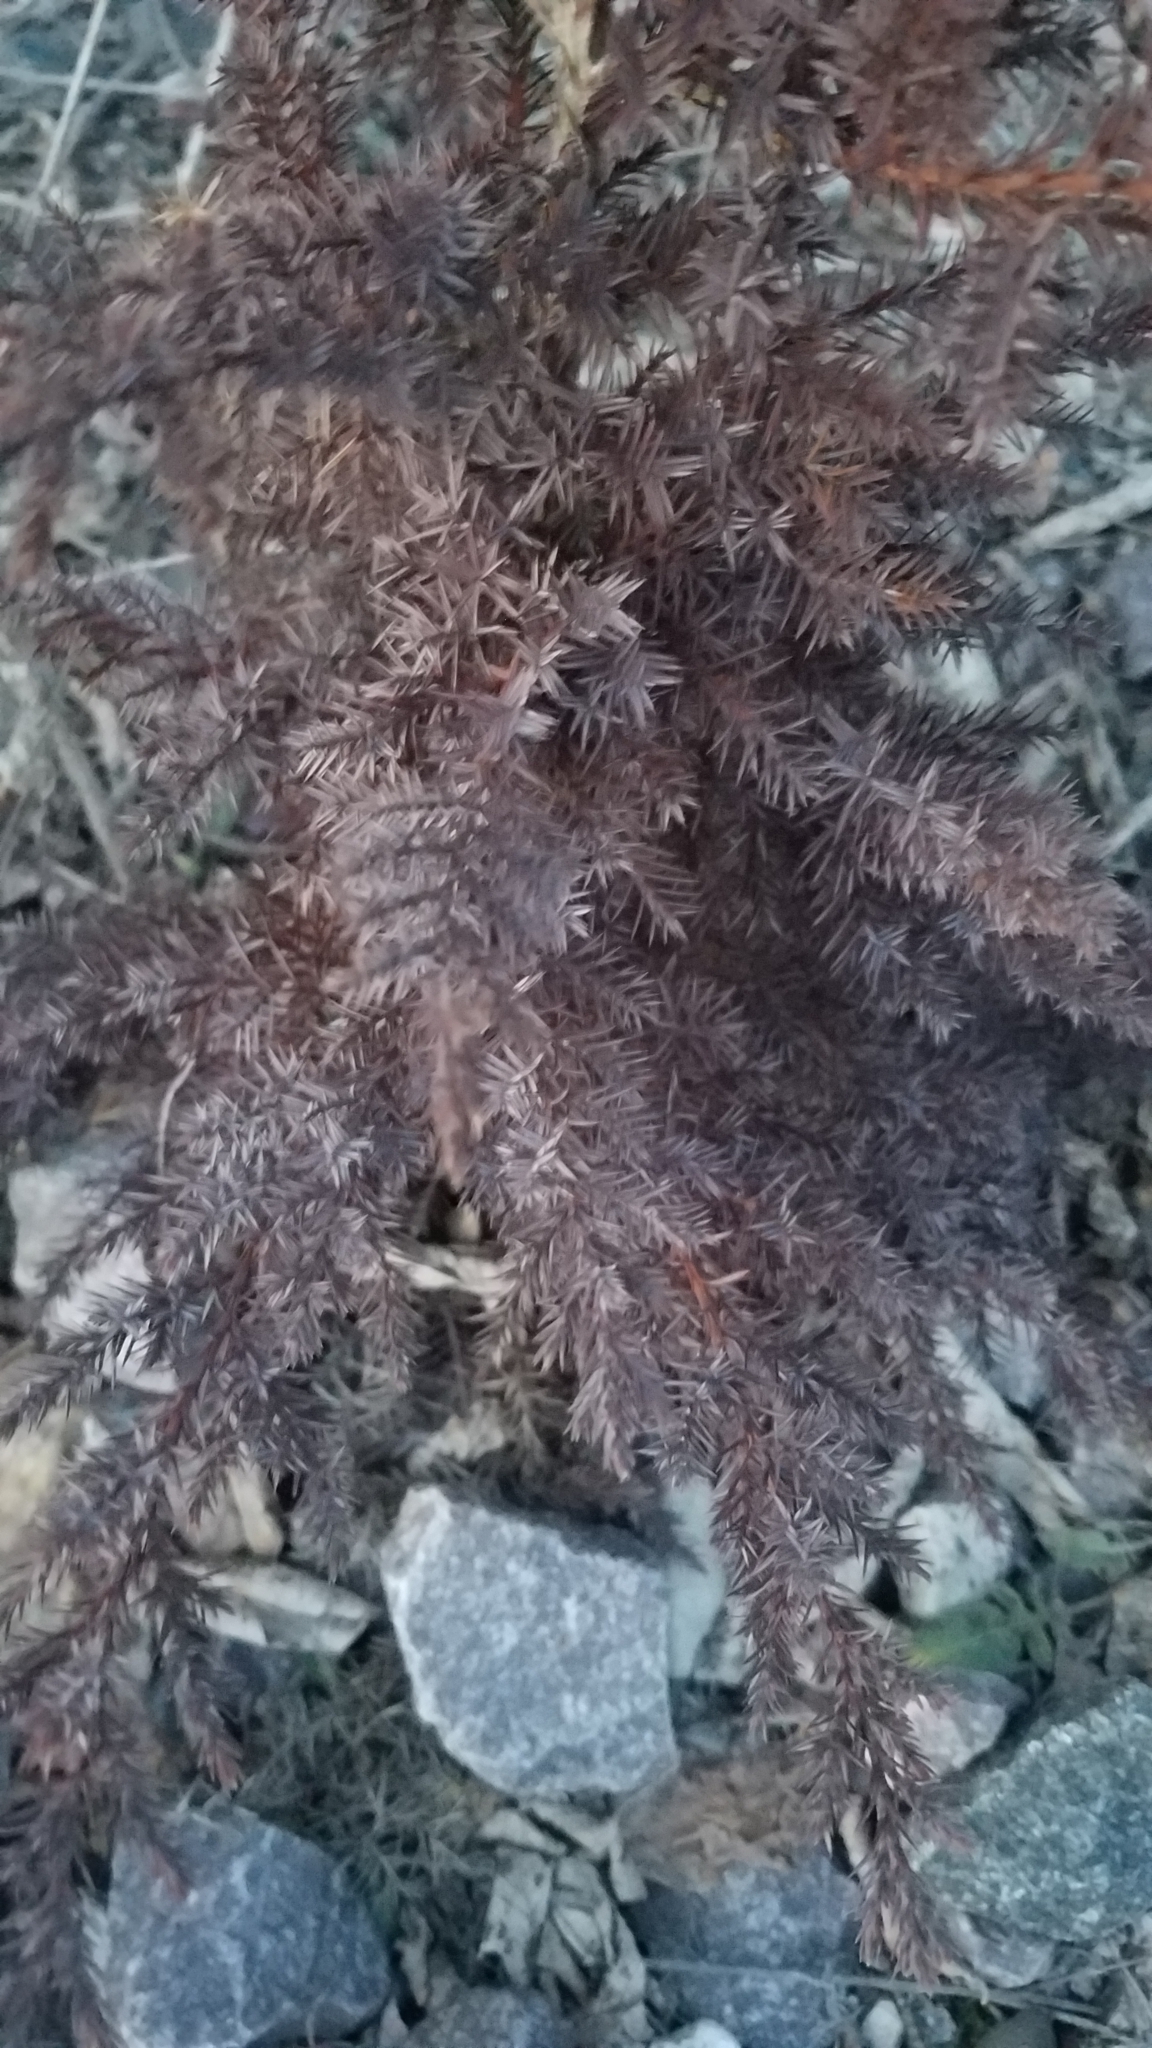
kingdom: Plantae
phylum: Tracheophyta
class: Pinopsida
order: Pinales
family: Cupressaceae
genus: Juniperus
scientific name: Juniperus virginiana
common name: Red juniper
